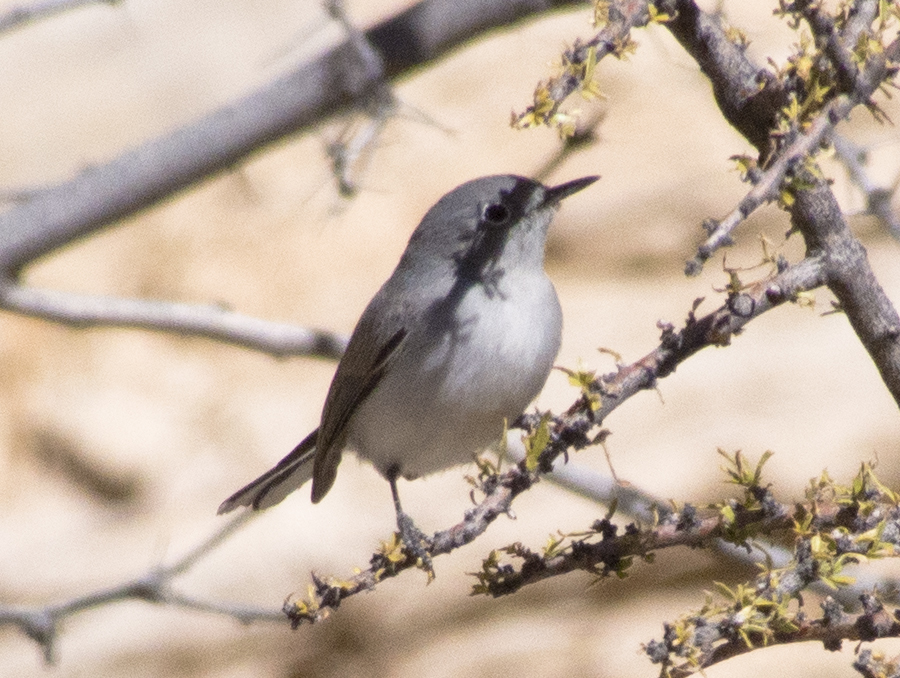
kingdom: Animalia
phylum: Chordata
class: Aves
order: Passeriformes
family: Polioptilidae
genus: Polioptila
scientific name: Polioptila caerulea
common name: Blue-gray gnatcatcher
